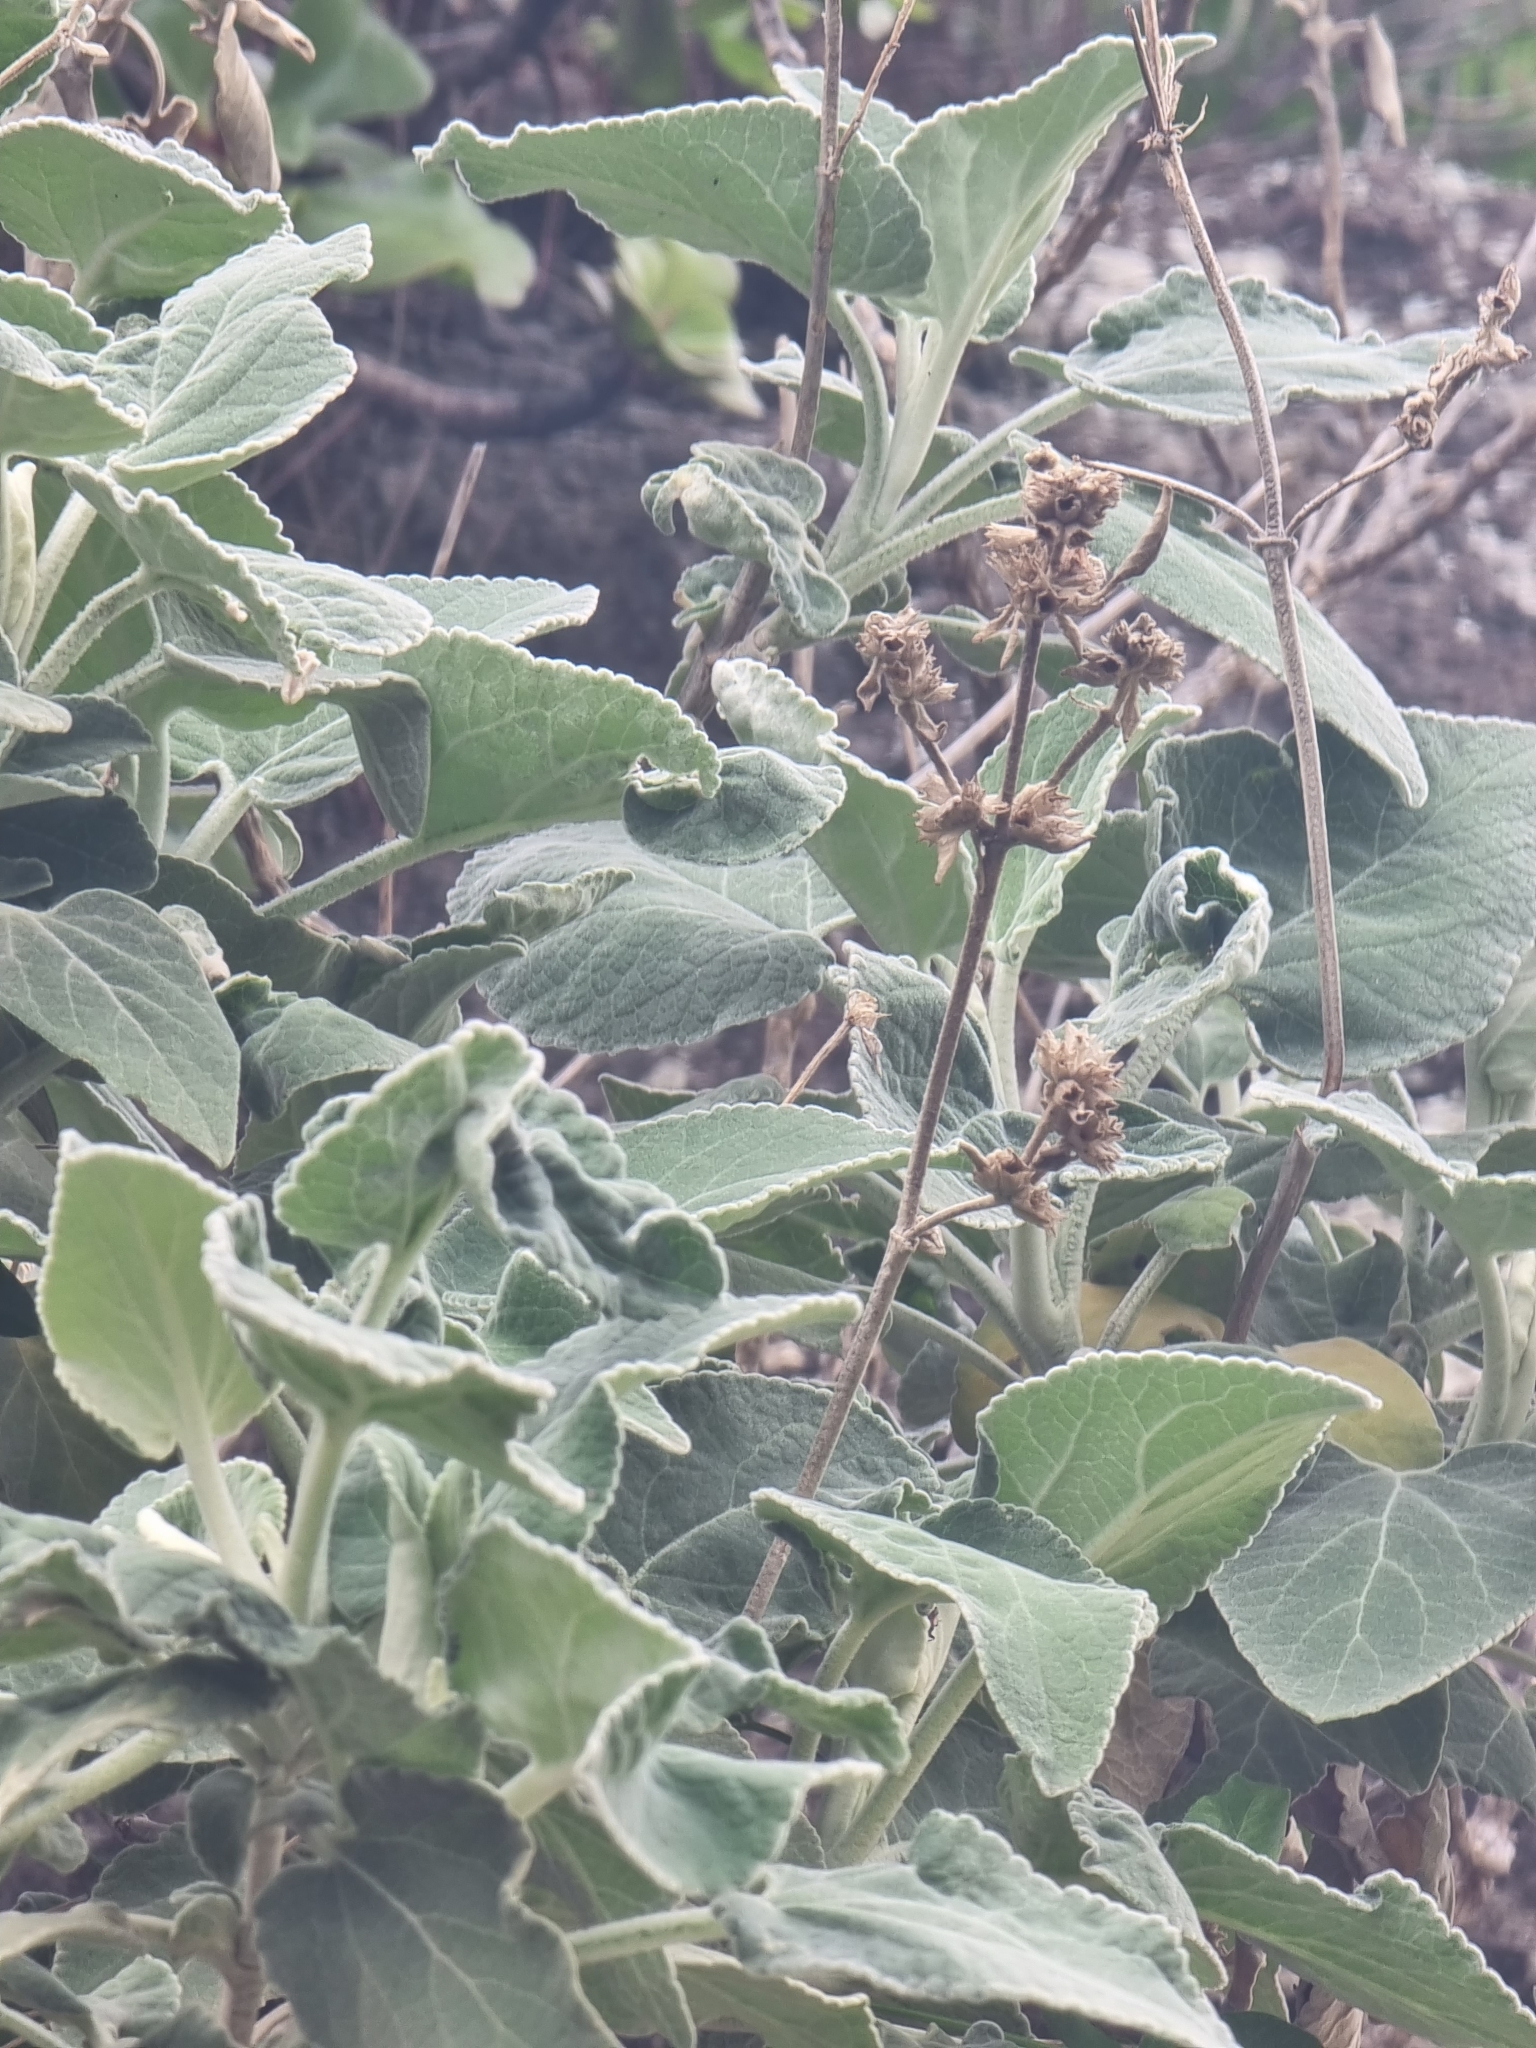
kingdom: Plantae
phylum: Tracheophyta
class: Magnoliopsida
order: Lamiales
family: Lamiaceae
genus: Sideritis
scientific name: Sideritis candicans
